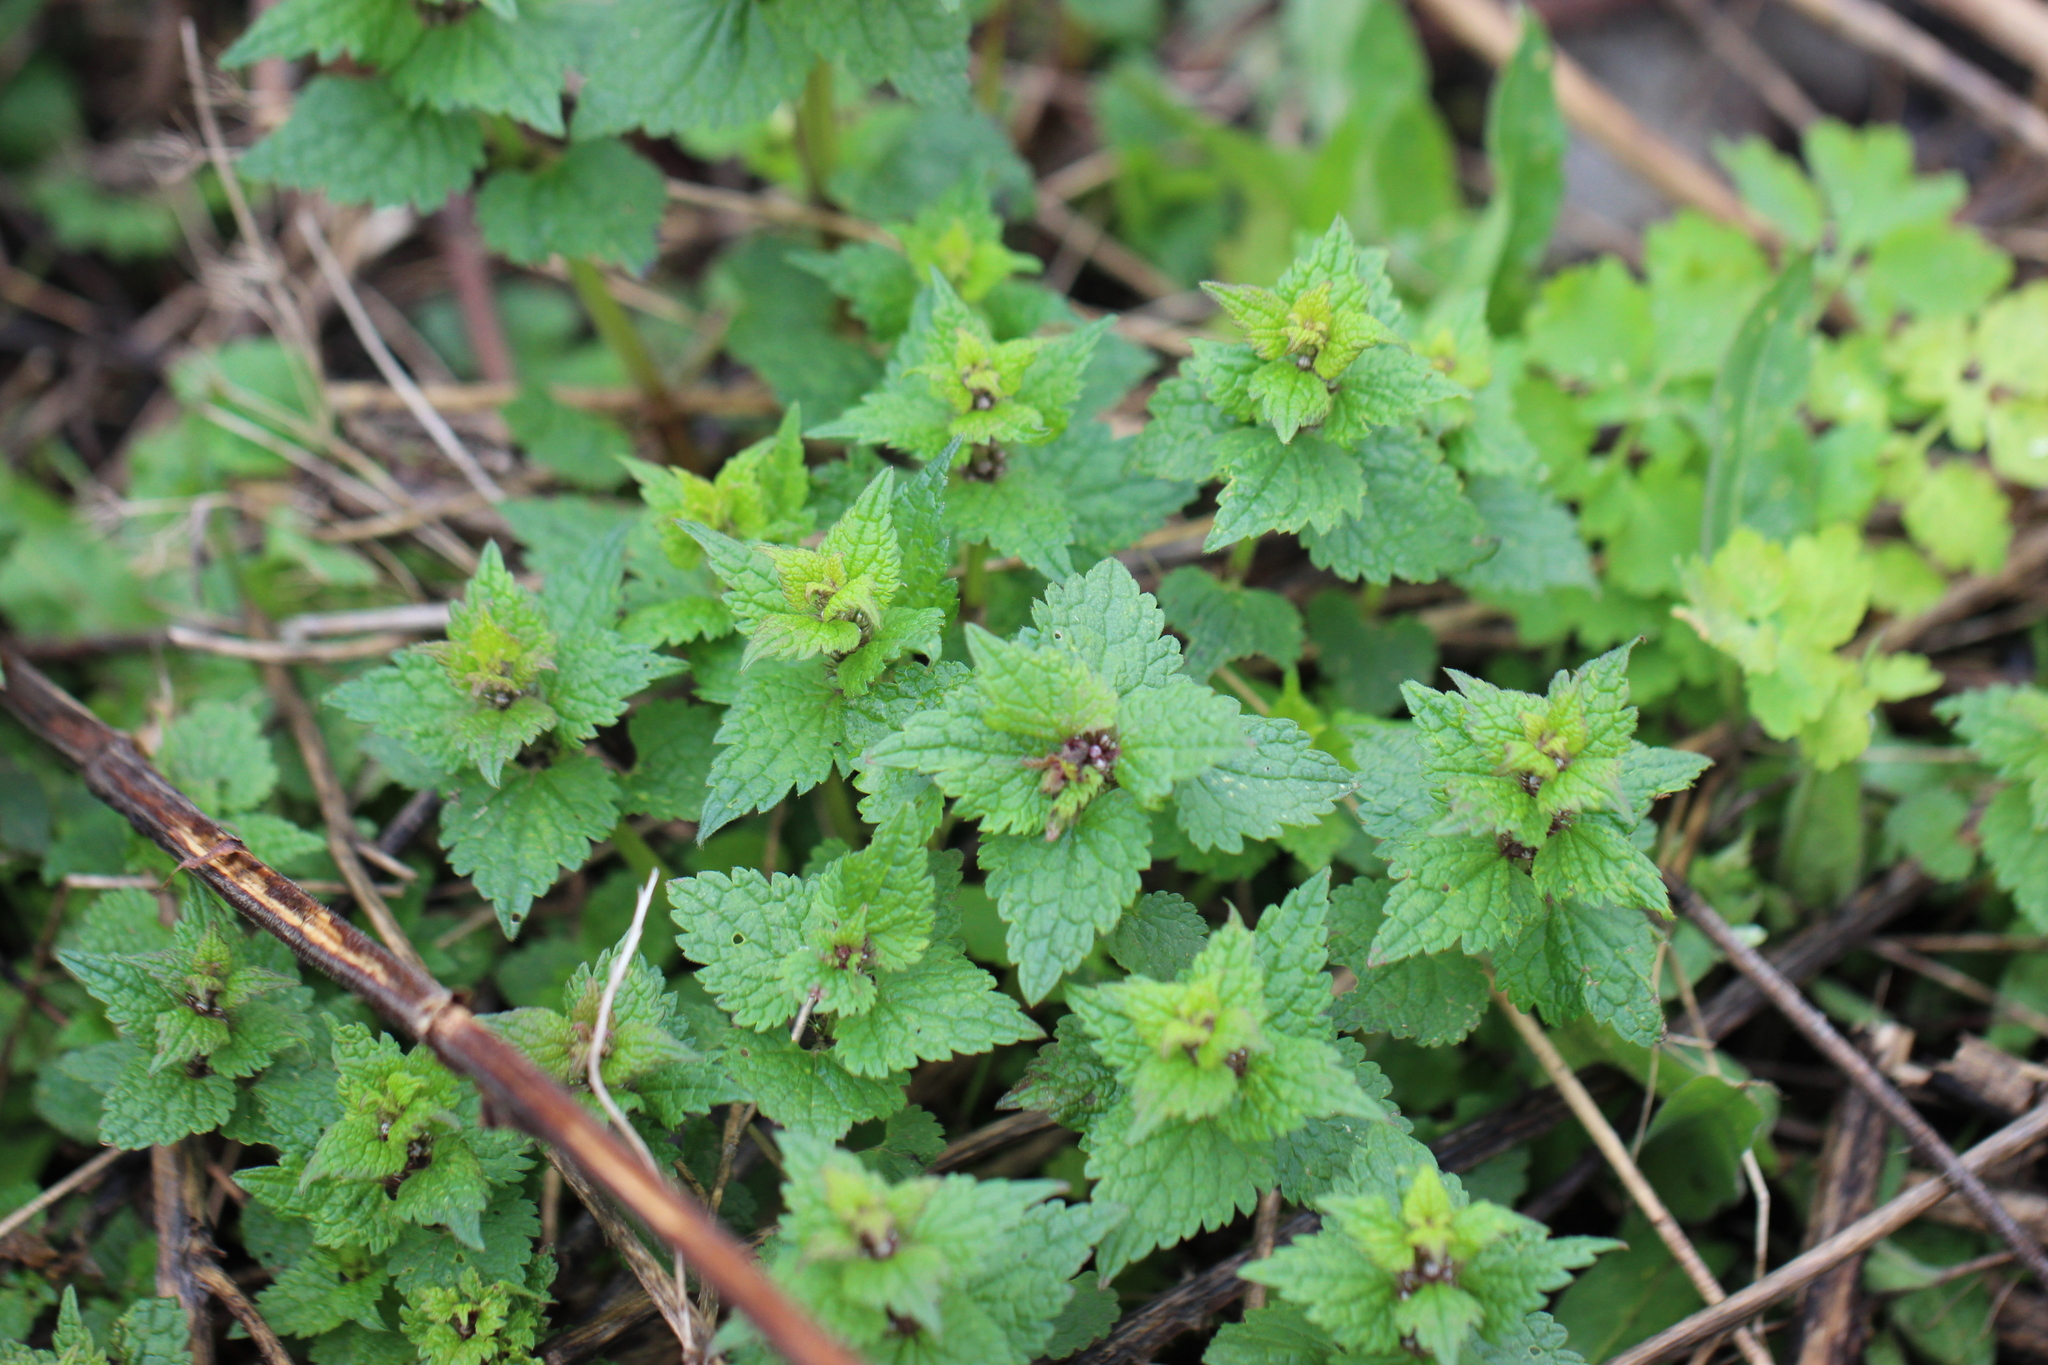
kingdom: Plantae
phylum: Tracheophyta
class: Magnoliopsida
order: Lamiales
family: Lamiaceae
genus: Lamium
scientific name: Lamium maculatum
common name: Spotted dead-nettle
